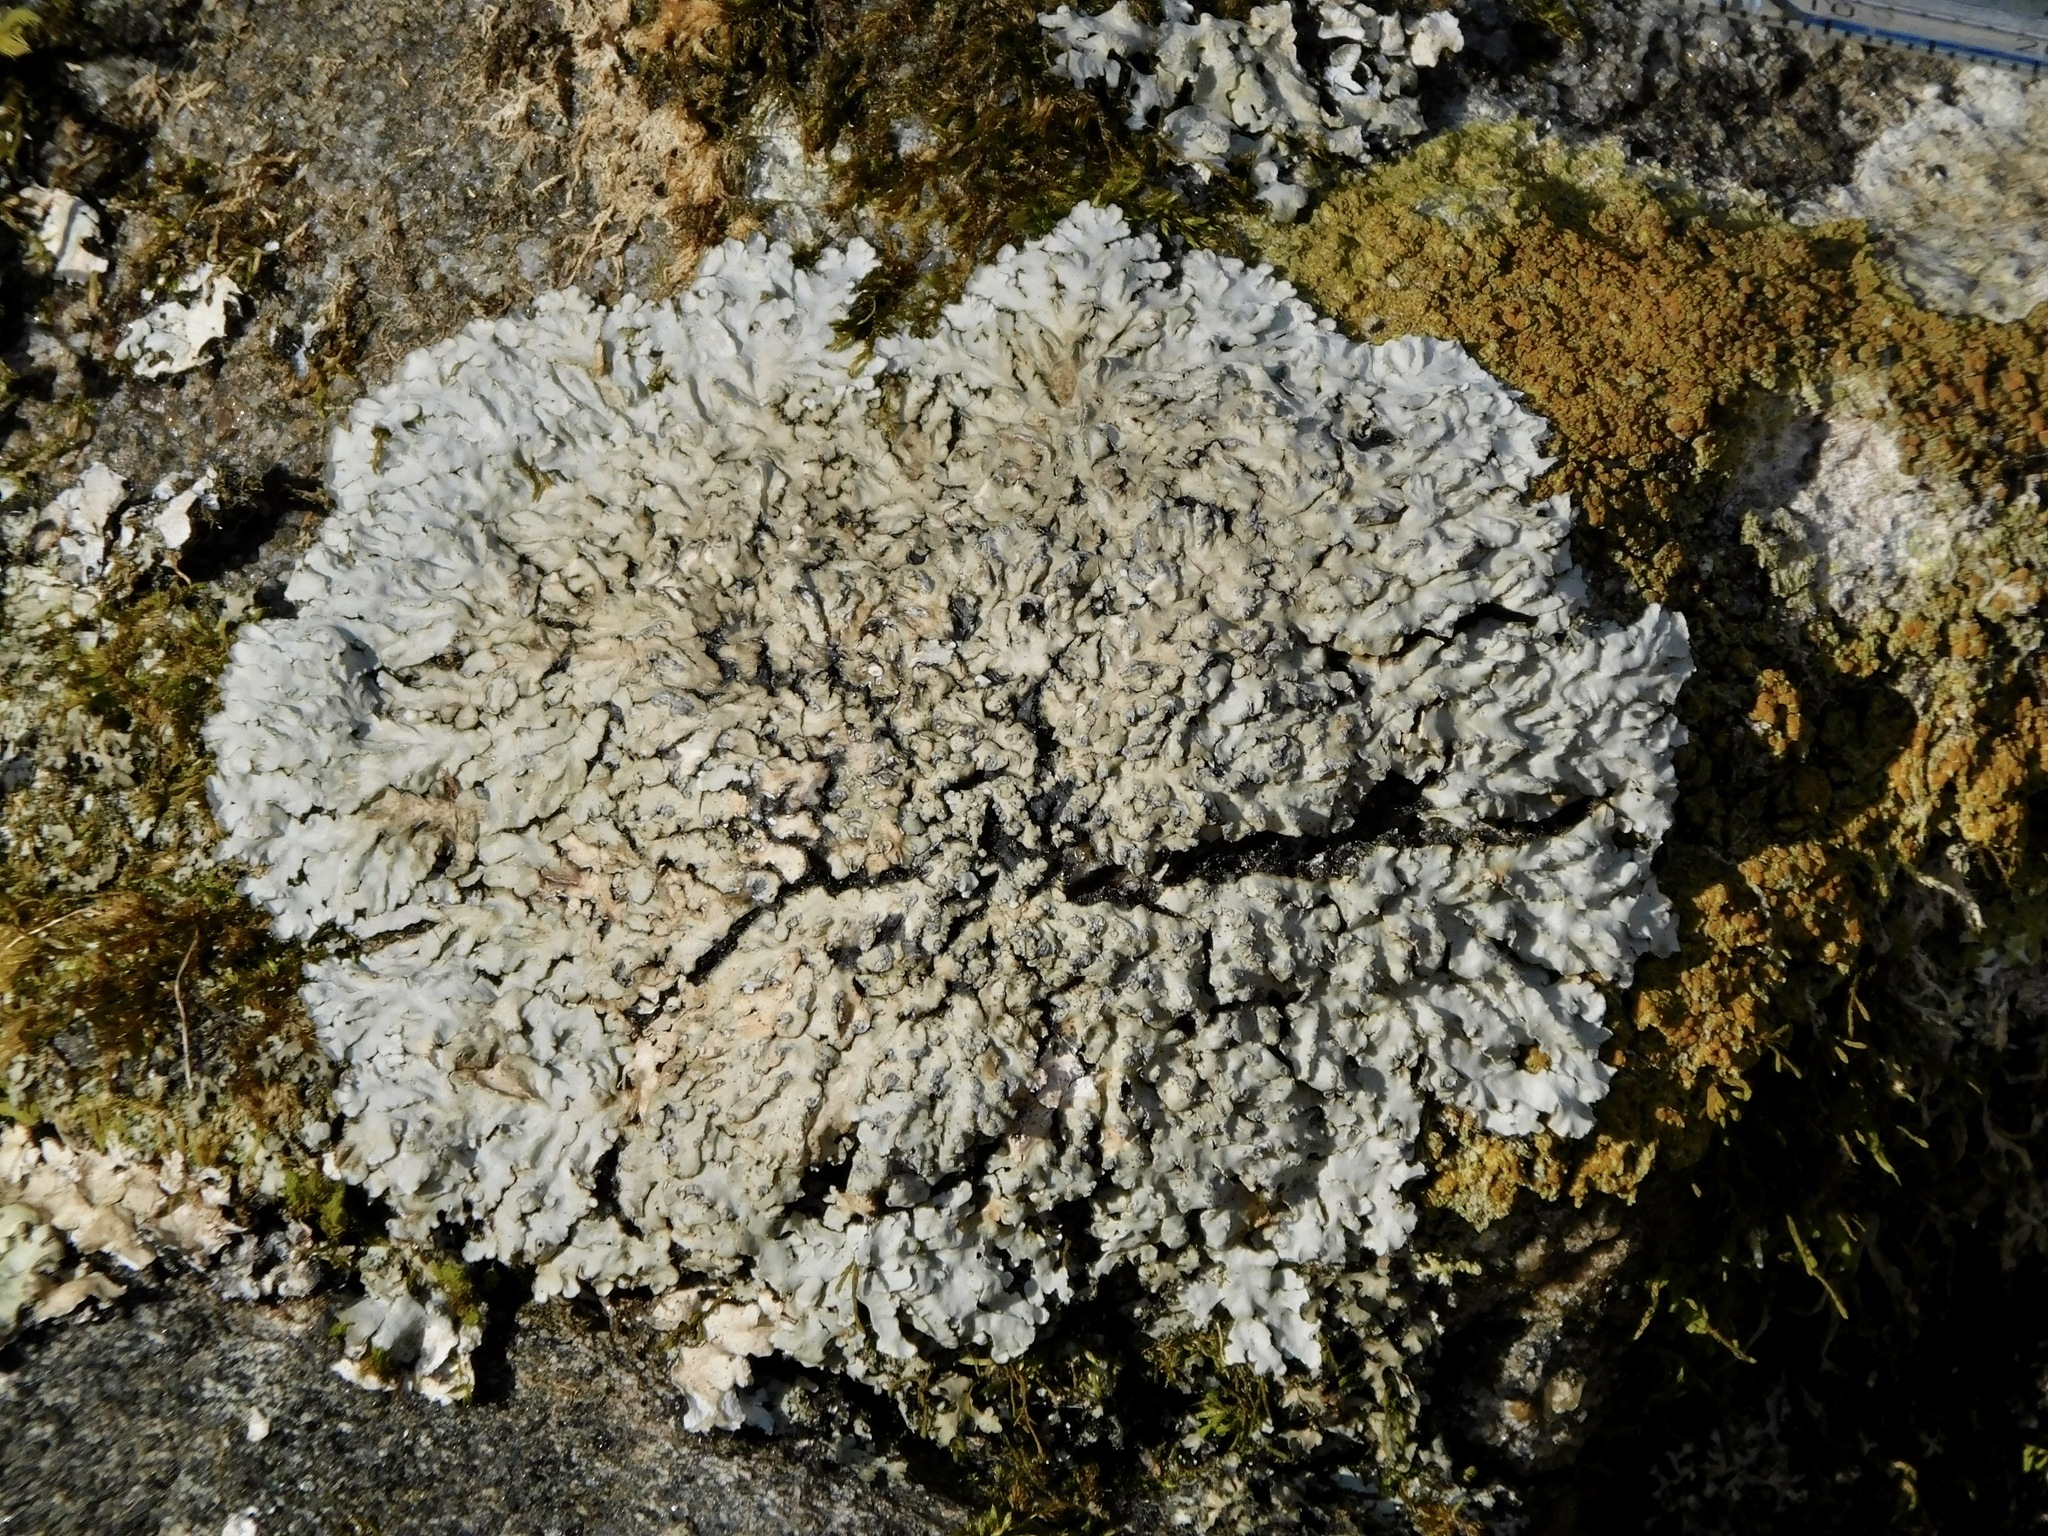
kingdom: Fungi
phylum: Ascomycota
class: Lecanoromycetes
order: Caliciales
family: Caliciaceae
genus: Pyxine
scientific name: Pyxine sorediata
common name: Mustard lichen
